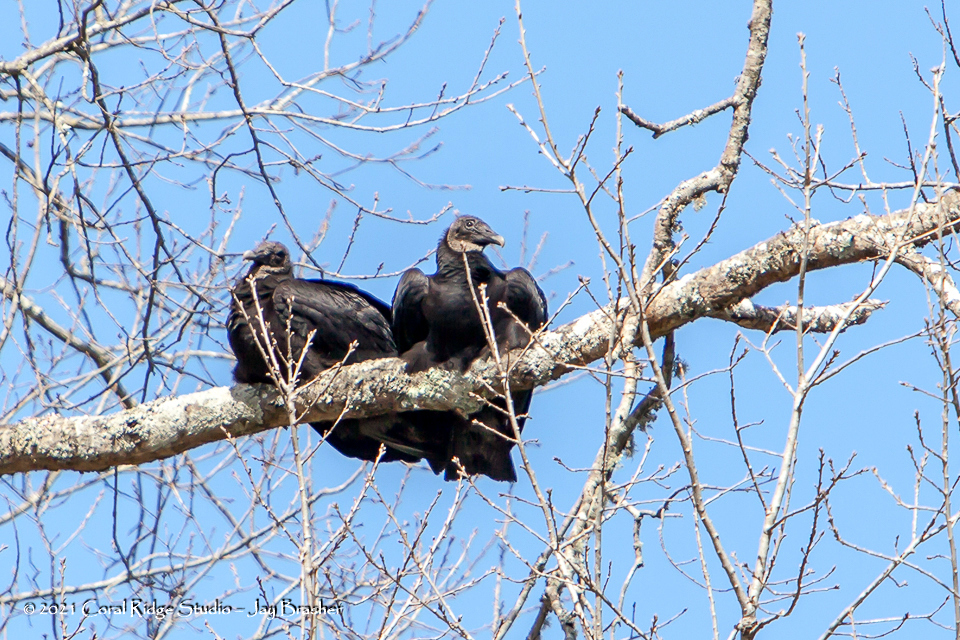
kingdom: Animalia
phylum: Chordata
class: Aves
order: Accipitriformes
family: Cathartidae
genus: Coragyps
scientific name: Coragyps atratus
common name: Black vulture
